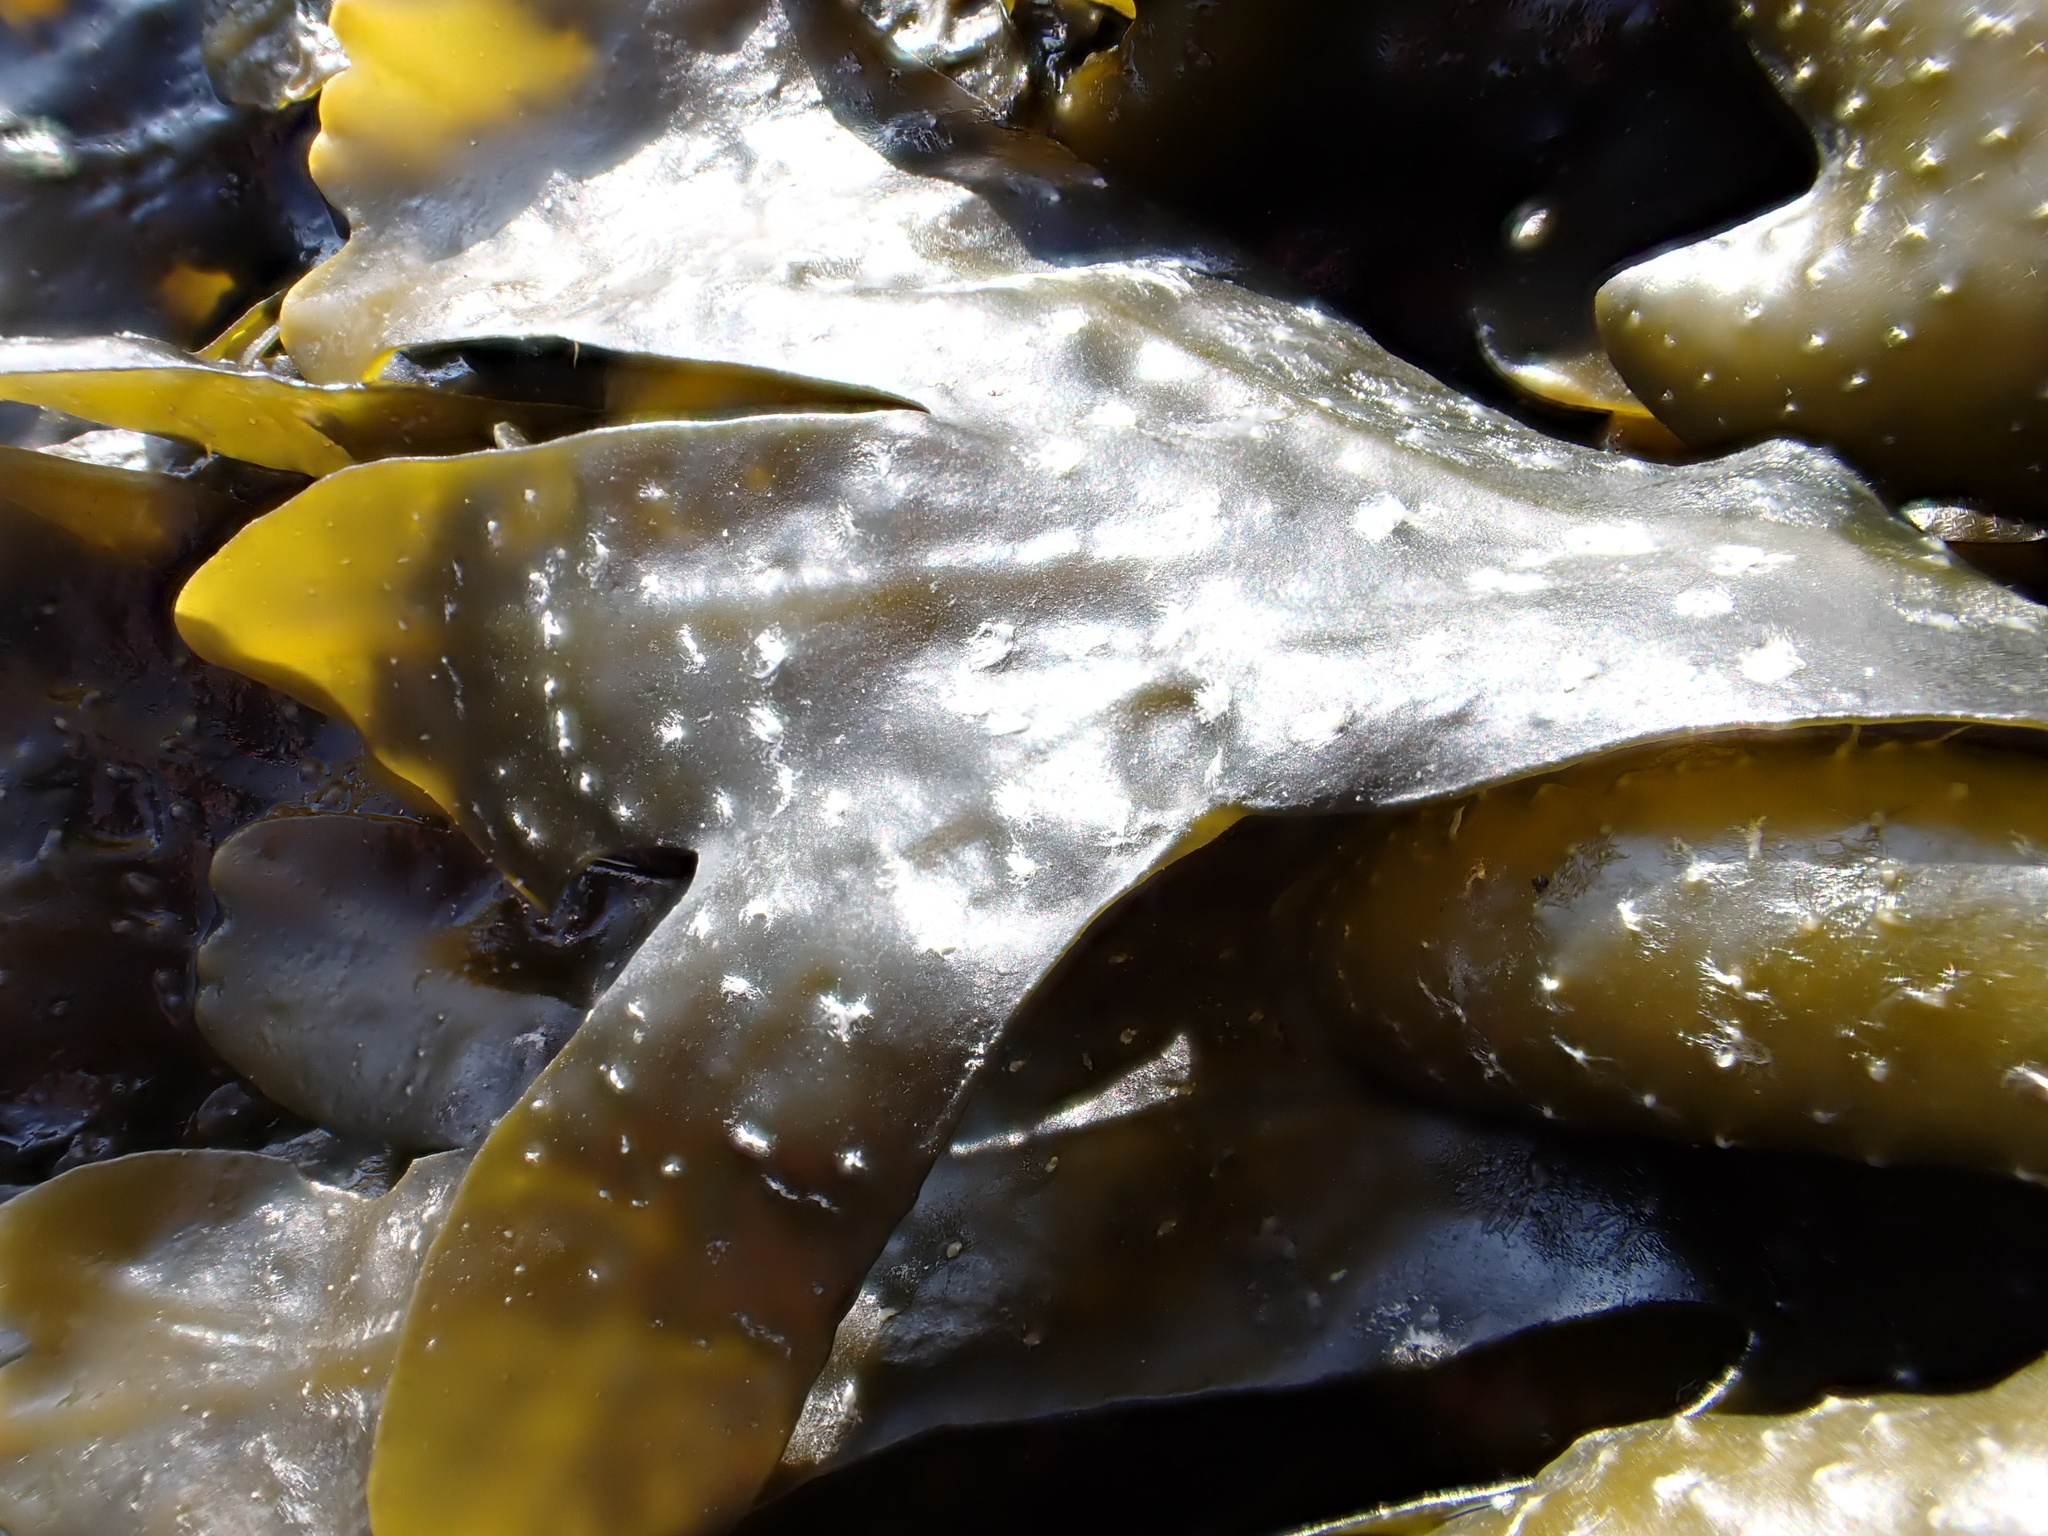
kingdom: Chromista
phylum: Ochrophyta
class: Phaeophyceae
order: Fucales
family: Fucaceae
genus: Fucus
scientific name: Fucus distichus
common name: Rockweed
